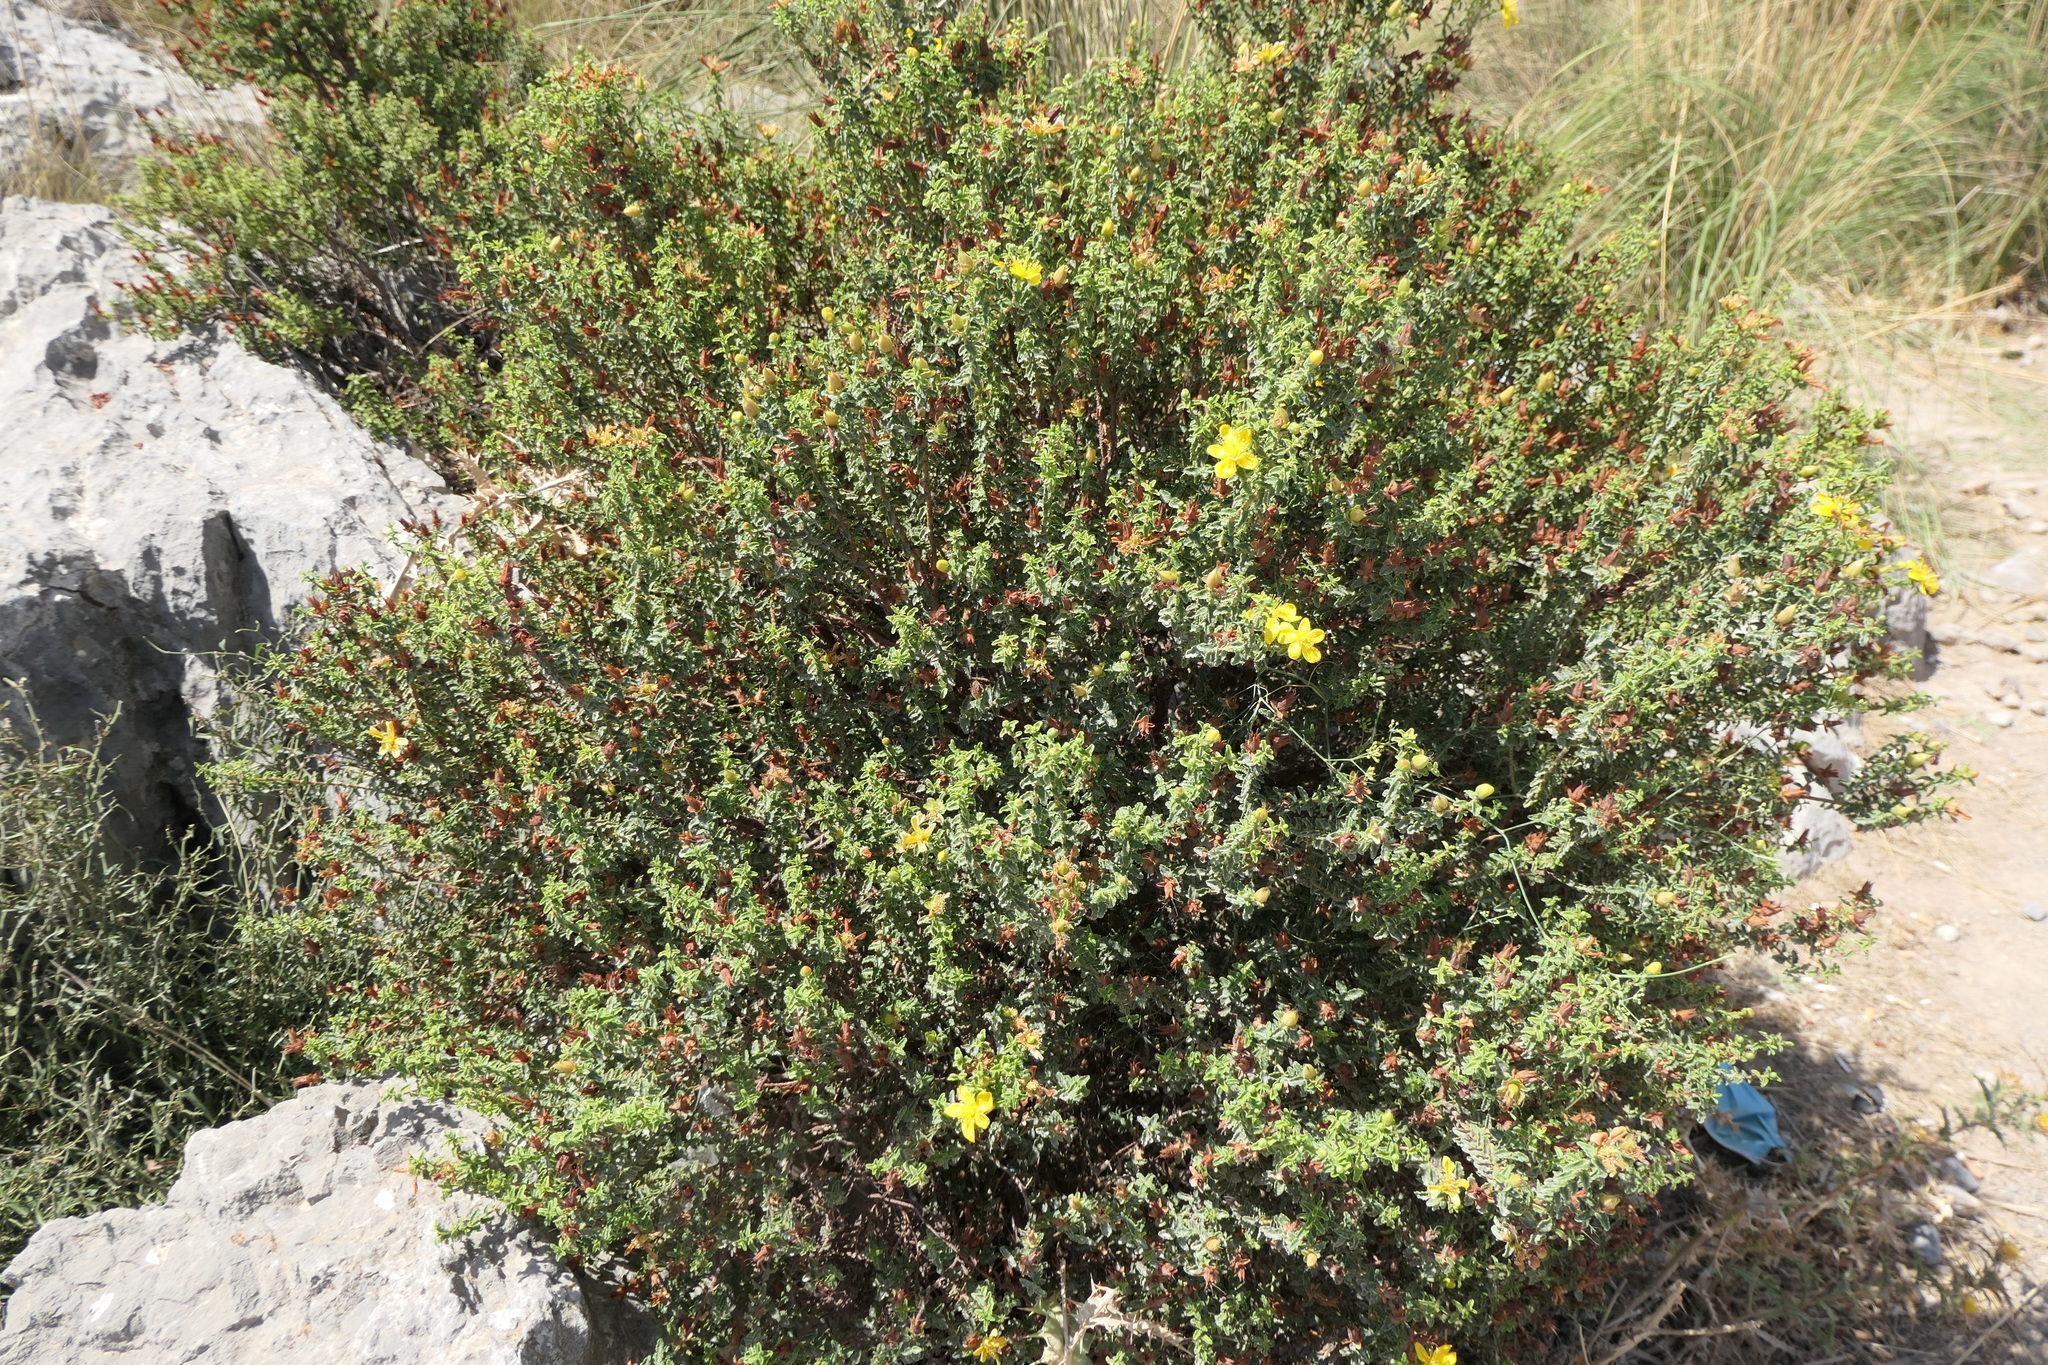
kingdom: Plantae
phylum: Tracheophyta
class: Magnoliopsida
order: Malpighiales
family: Hypericaceae
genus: Hypericum
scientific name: Hypericum balearicum
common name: Majorca st john's wort
